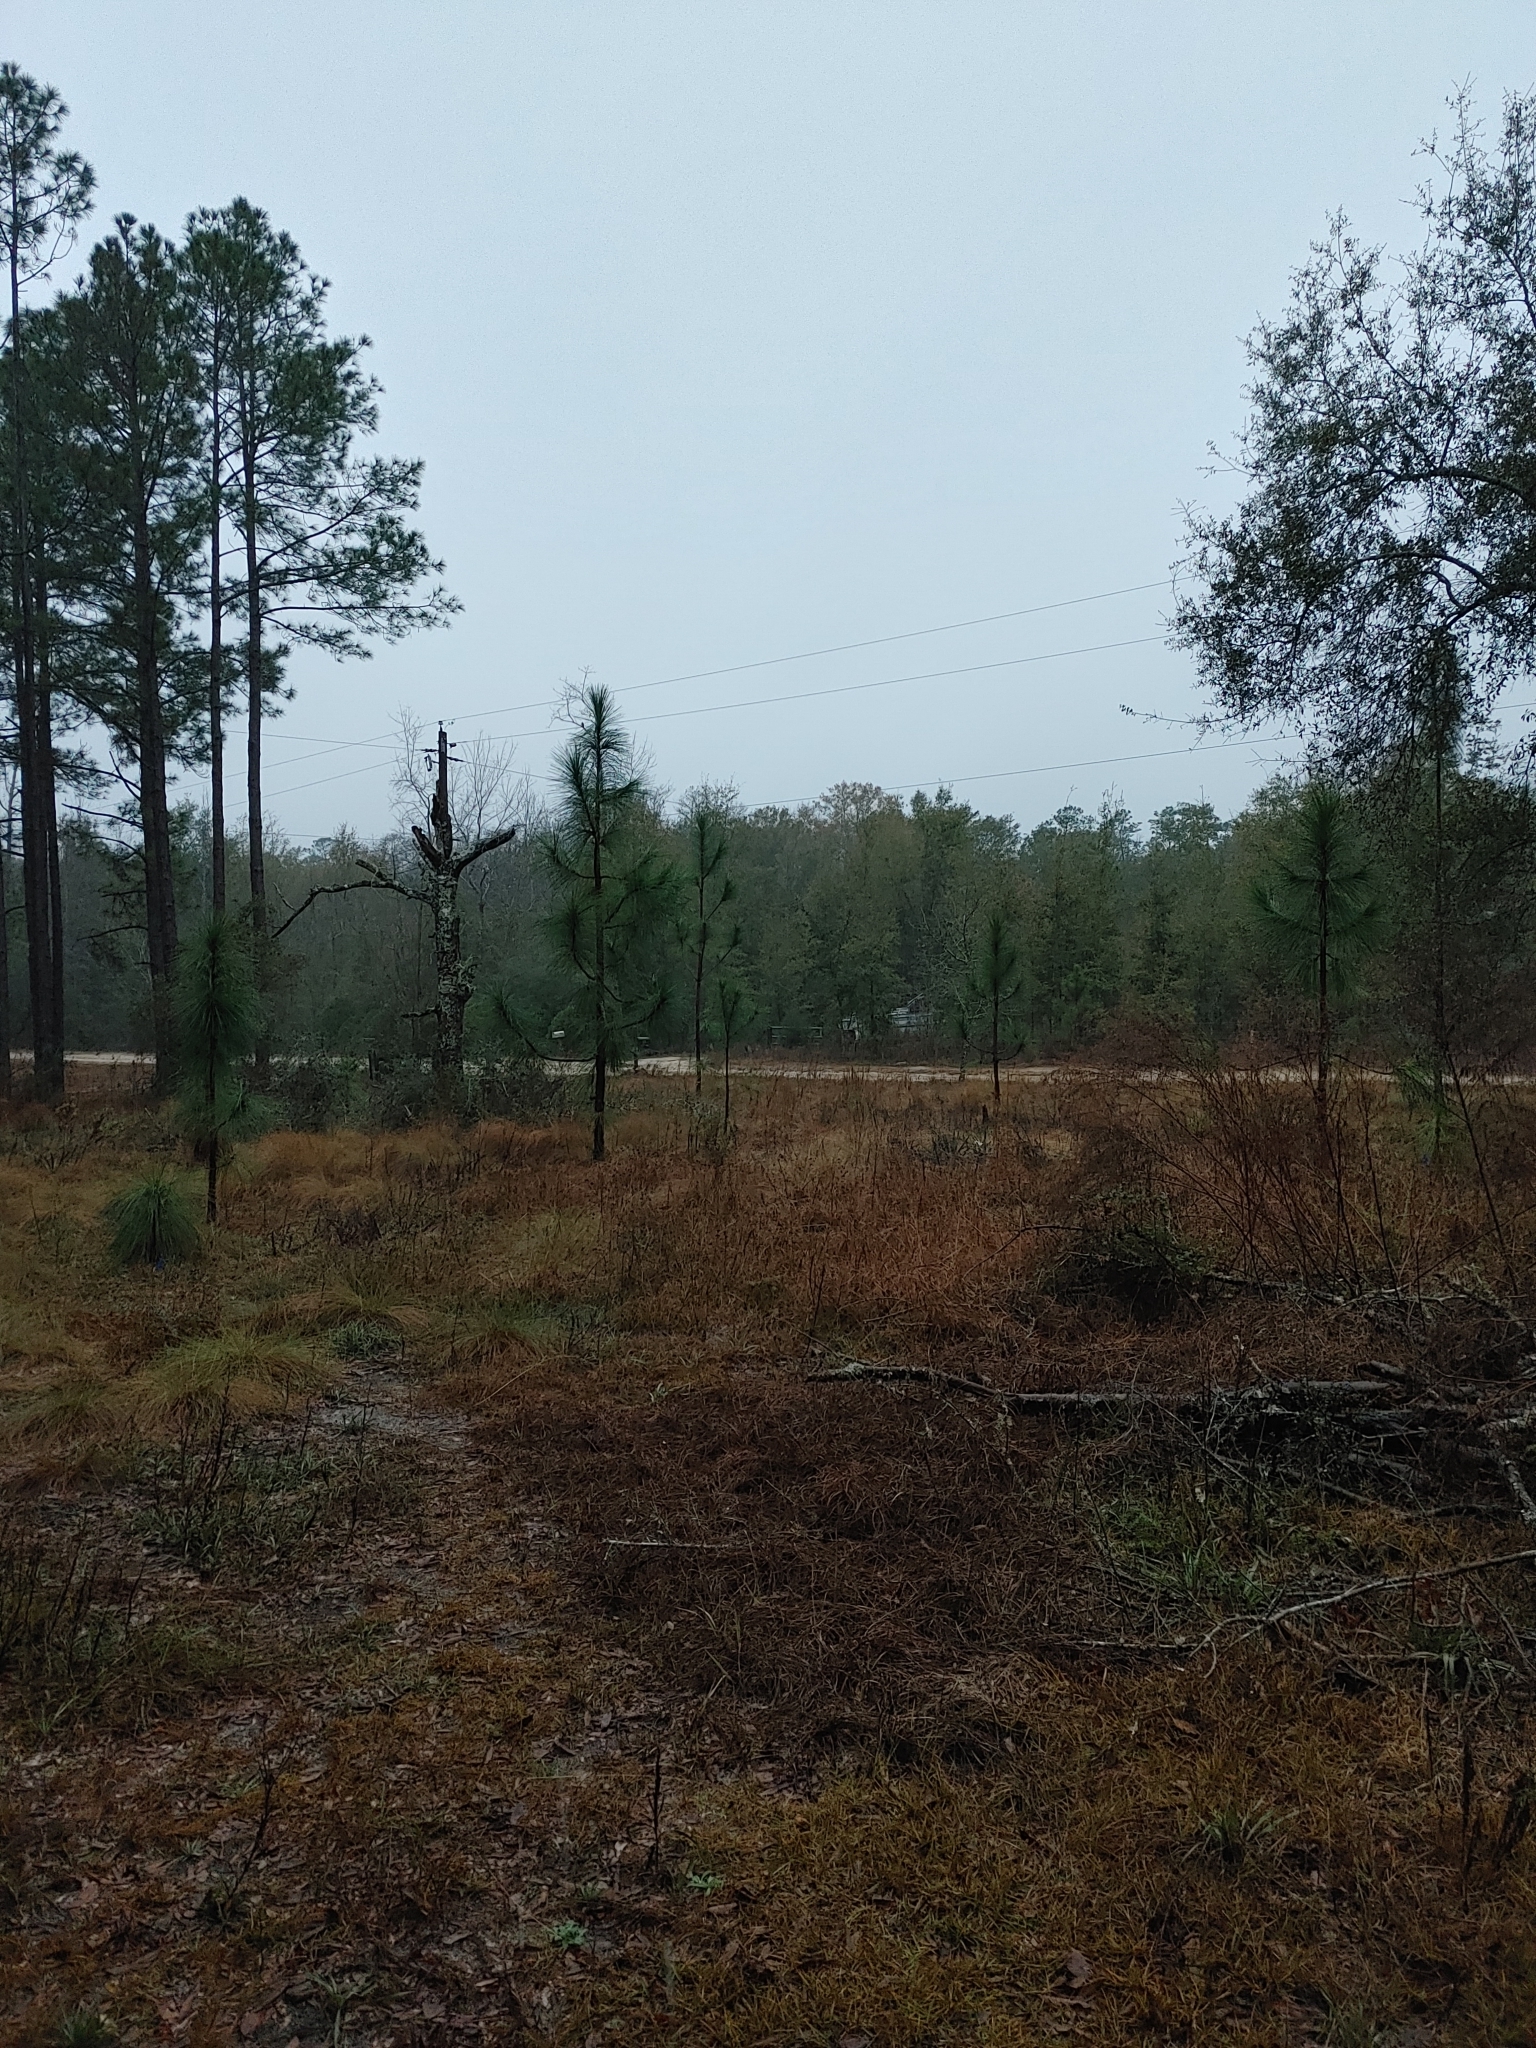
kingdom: Plantae
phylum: Tracheophyta
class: Pinopsida
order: Pinales
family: Pinaceae
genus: Pinus
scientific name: Pinus palustris
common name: Longleaf pine
